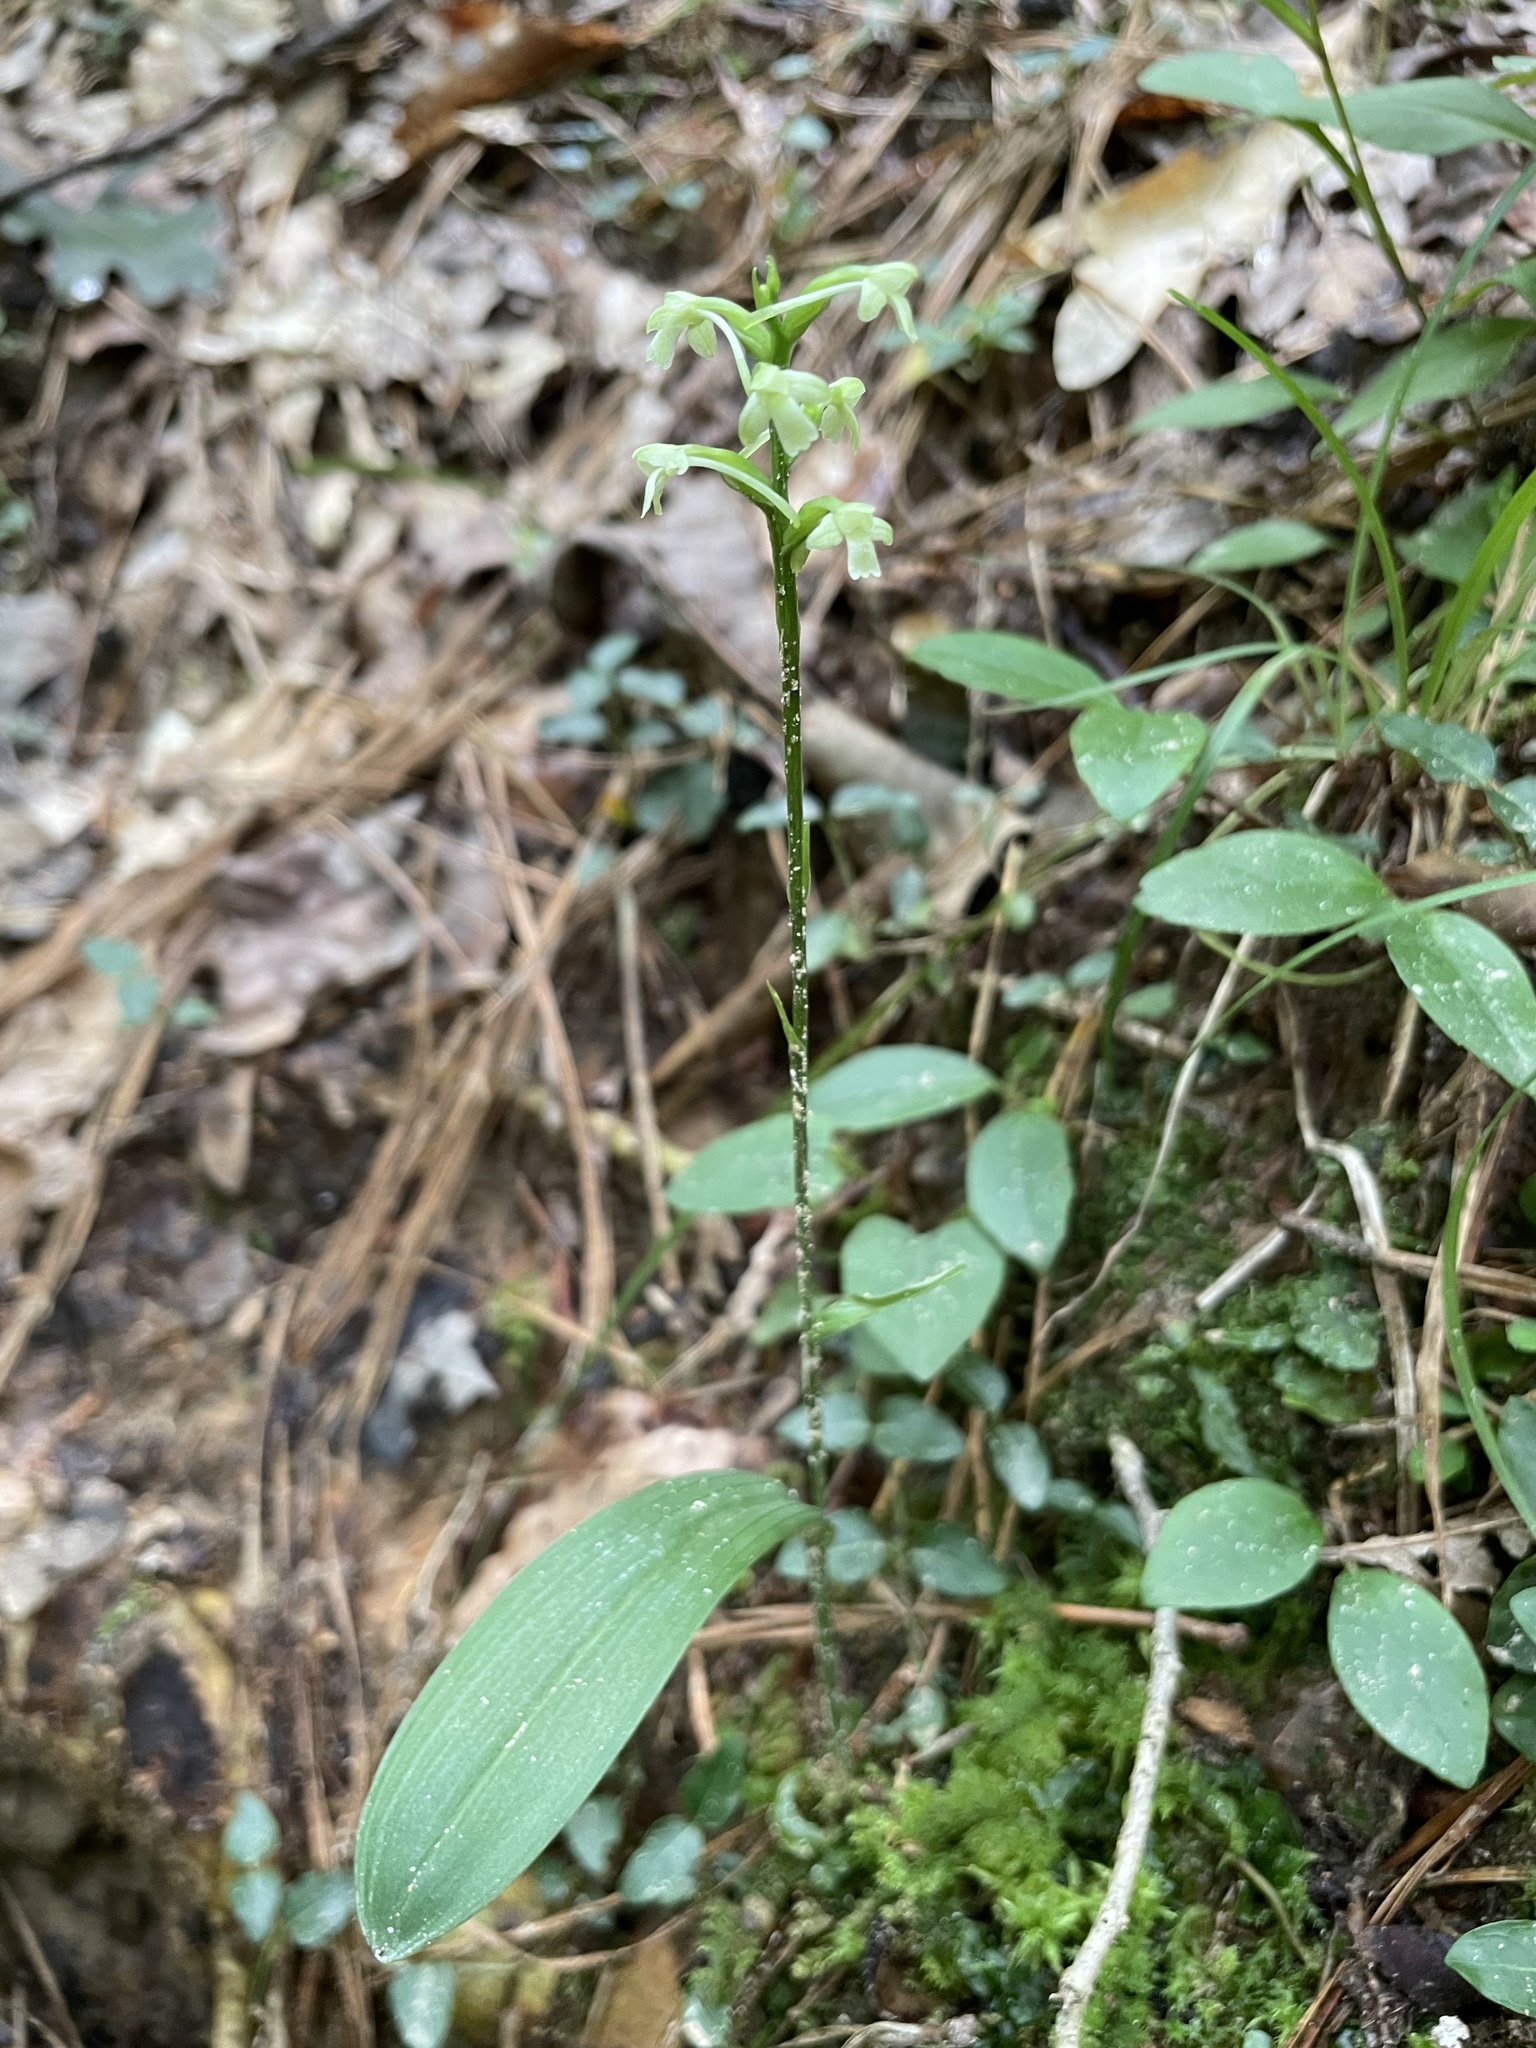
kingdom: Plantae
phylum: Tracheophyta
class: Liliopsida
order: Asparagales
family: Orchidaceae
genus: Platanthera
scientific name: Platanthera clavellata
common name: Club-spur orchid
